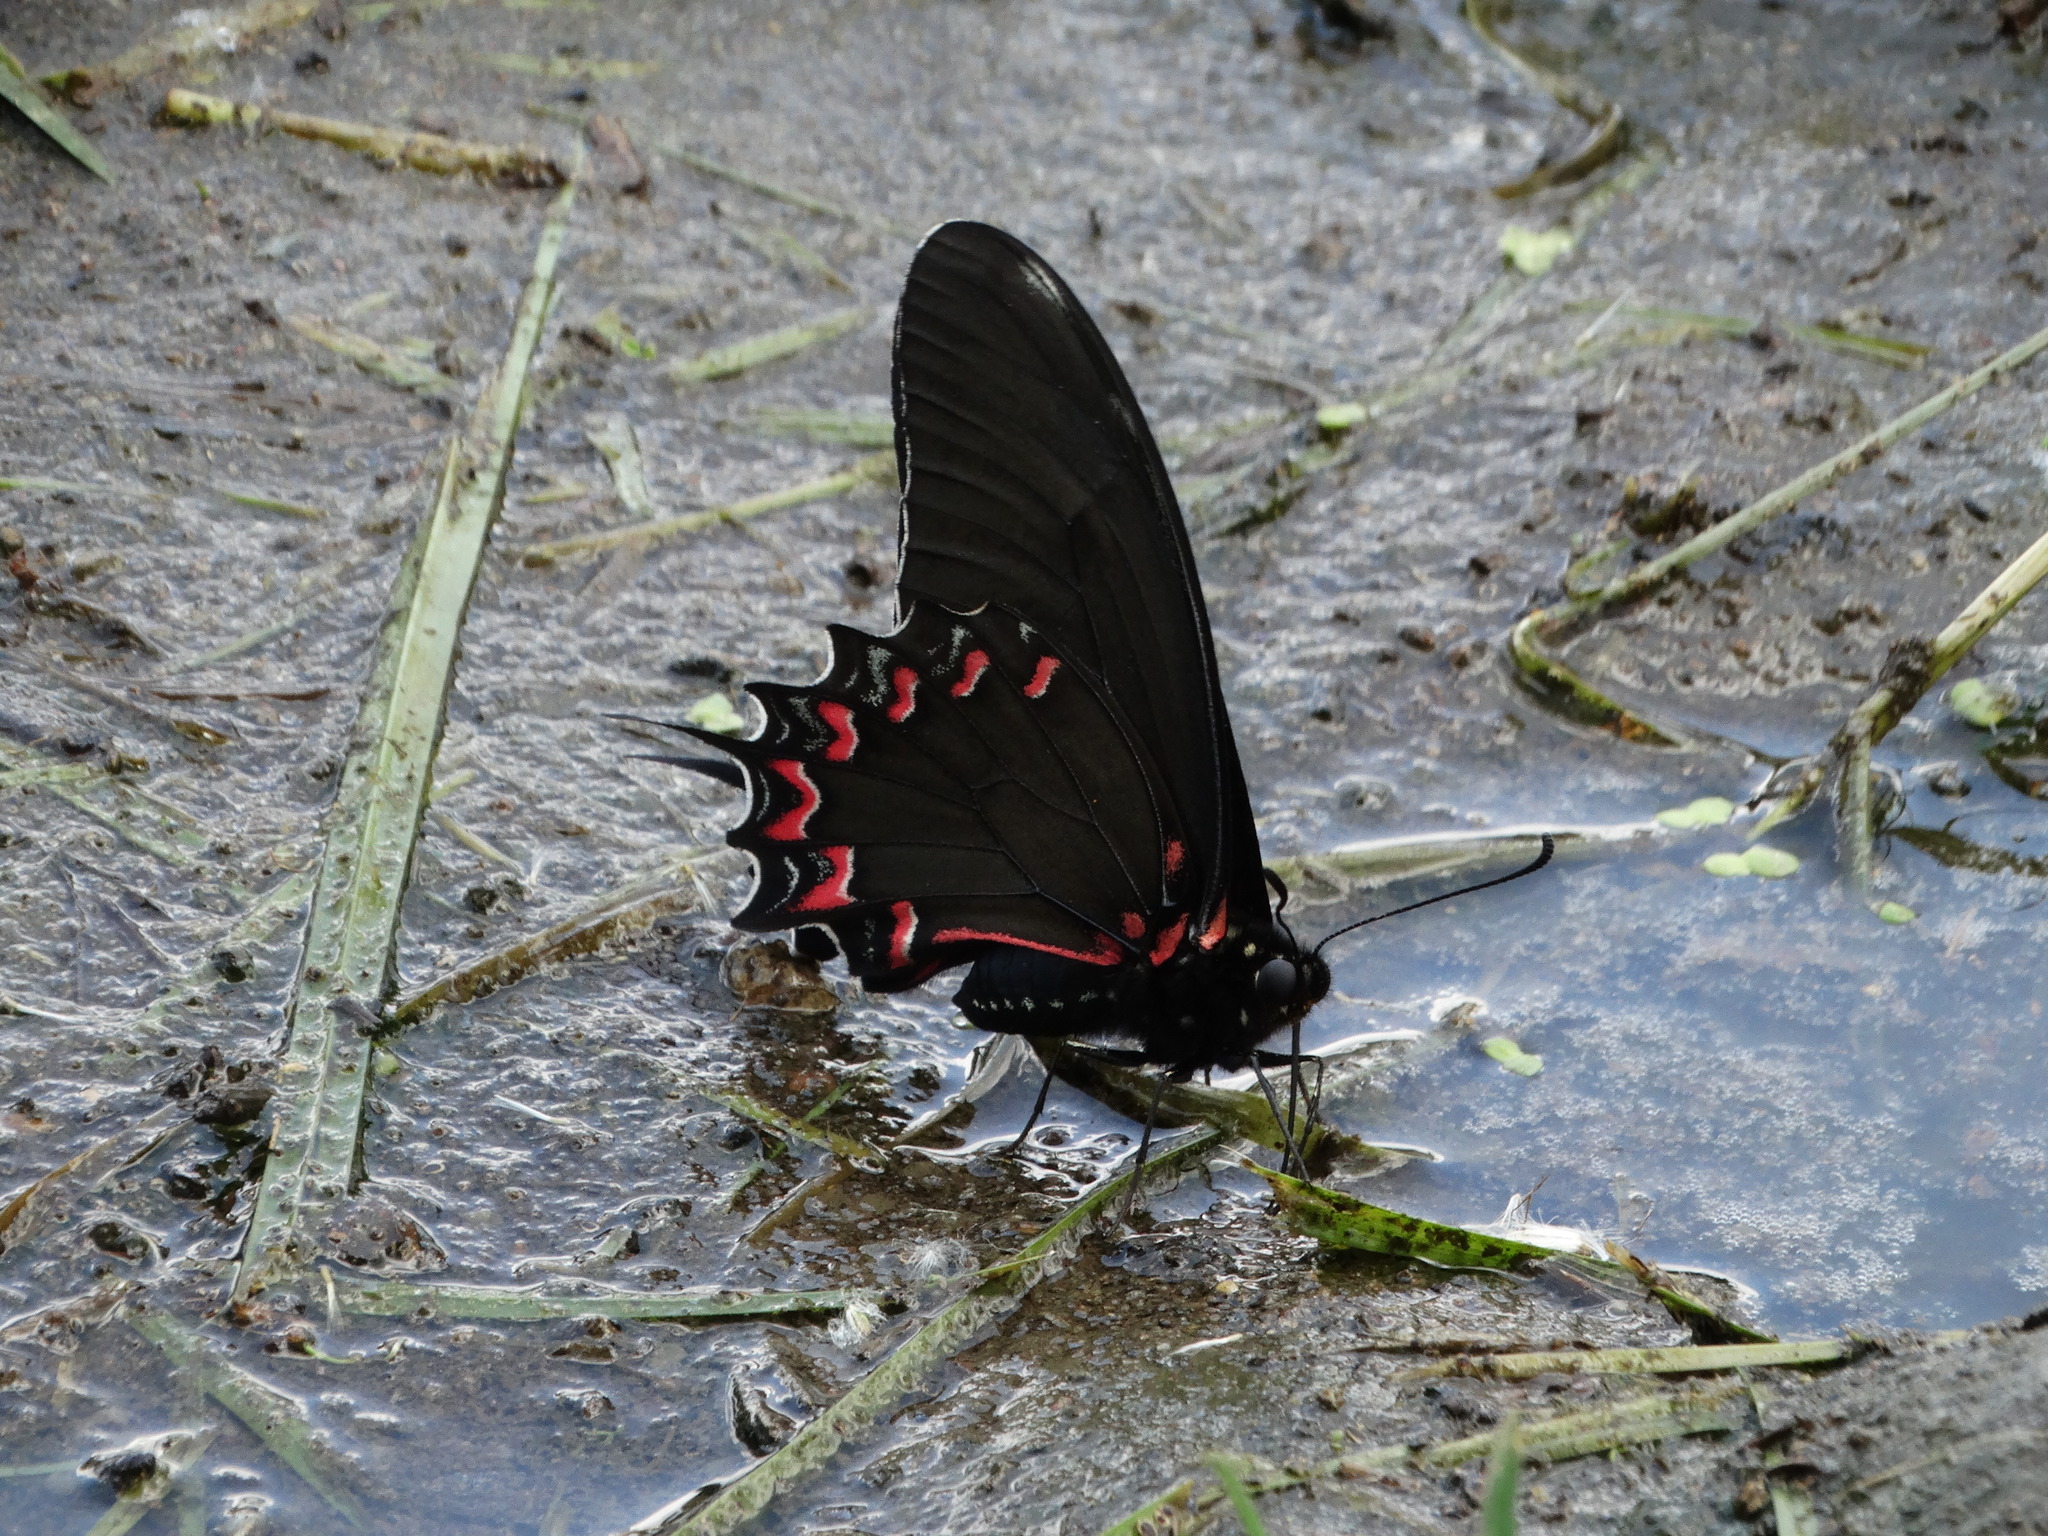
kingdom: Animalia
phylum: Arthropoda
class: Insecta
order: Lepidoptera
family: Papilionidae
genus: Mimoides
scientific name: Mimoides thymbraeus
